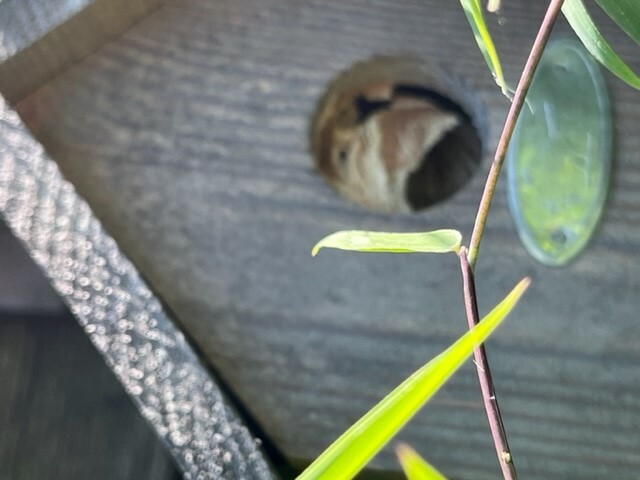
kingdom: Animalia
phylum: Arthropoda
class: Insecta
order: Hymenoptera
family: Vespidae
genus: Vespa
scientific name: Vespa crabro
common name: Hornet
